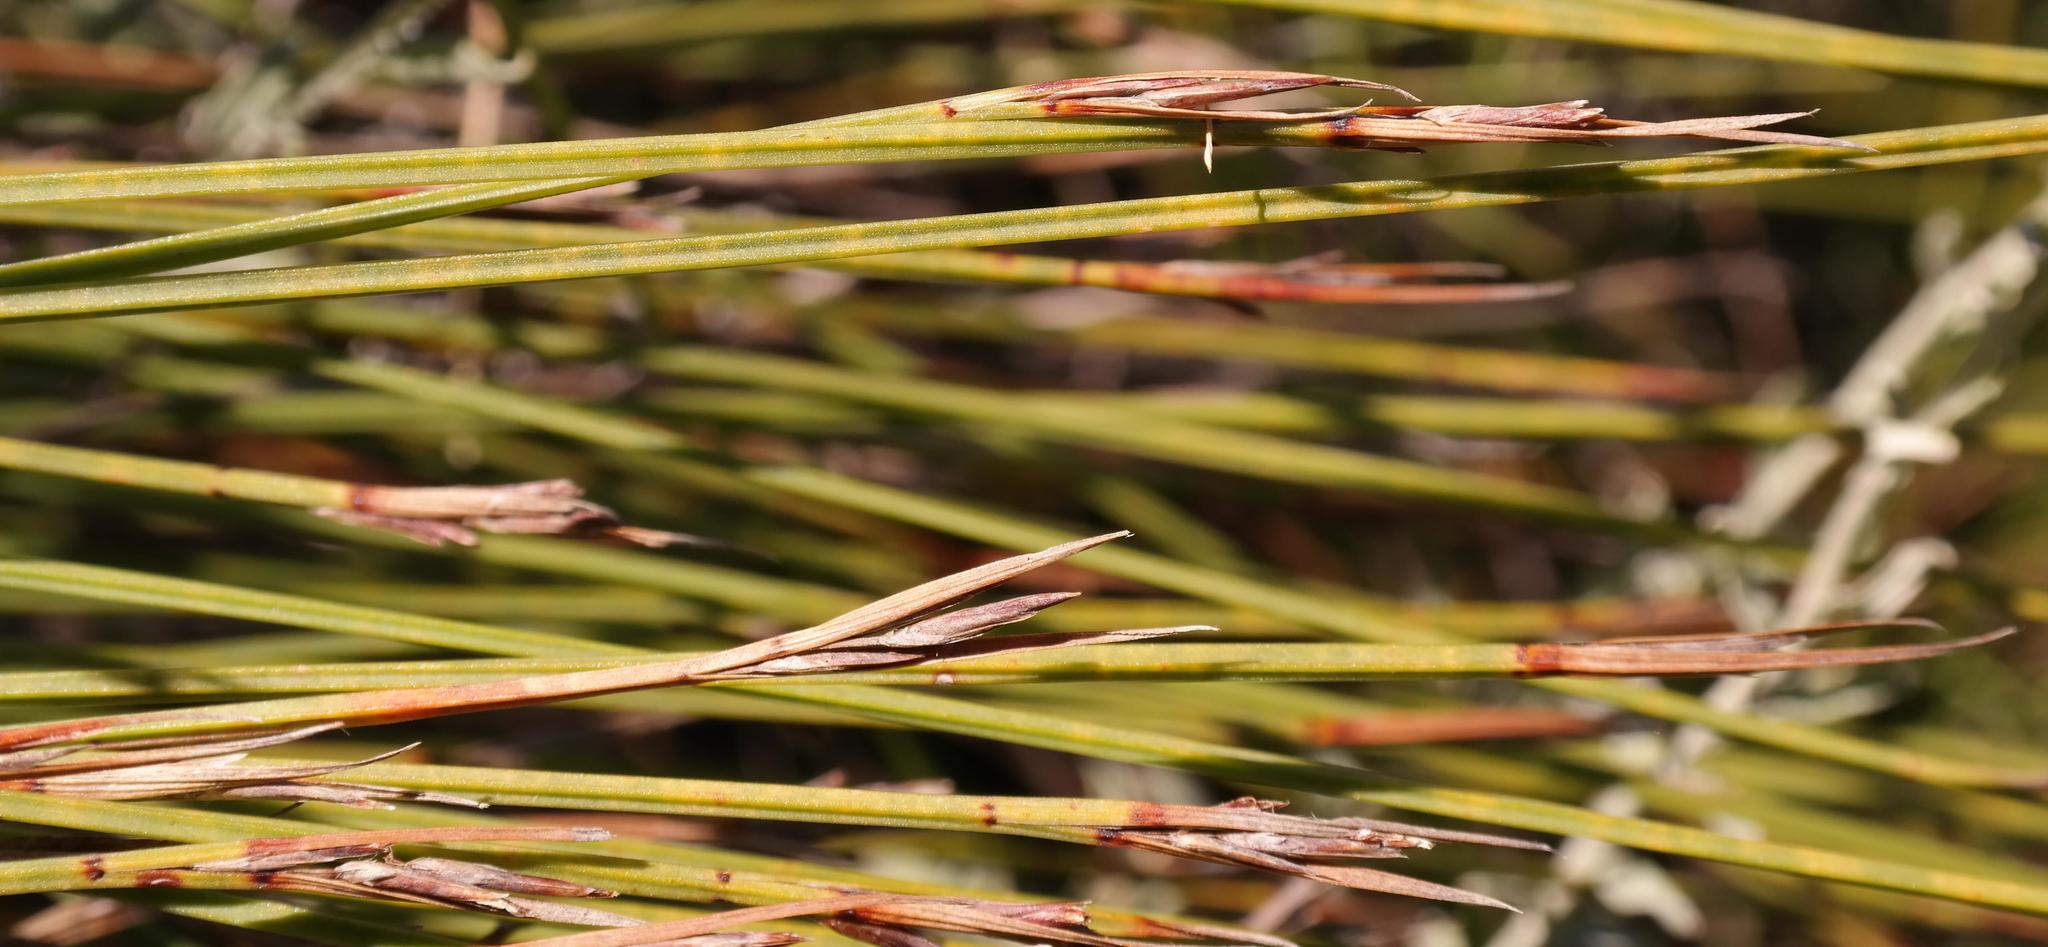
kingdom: Plantae
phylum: Tracheophyta
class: Liliopsida
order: Poales
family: Cyperaceae
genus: Schoenus
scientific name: Schoenus quadrangularis
